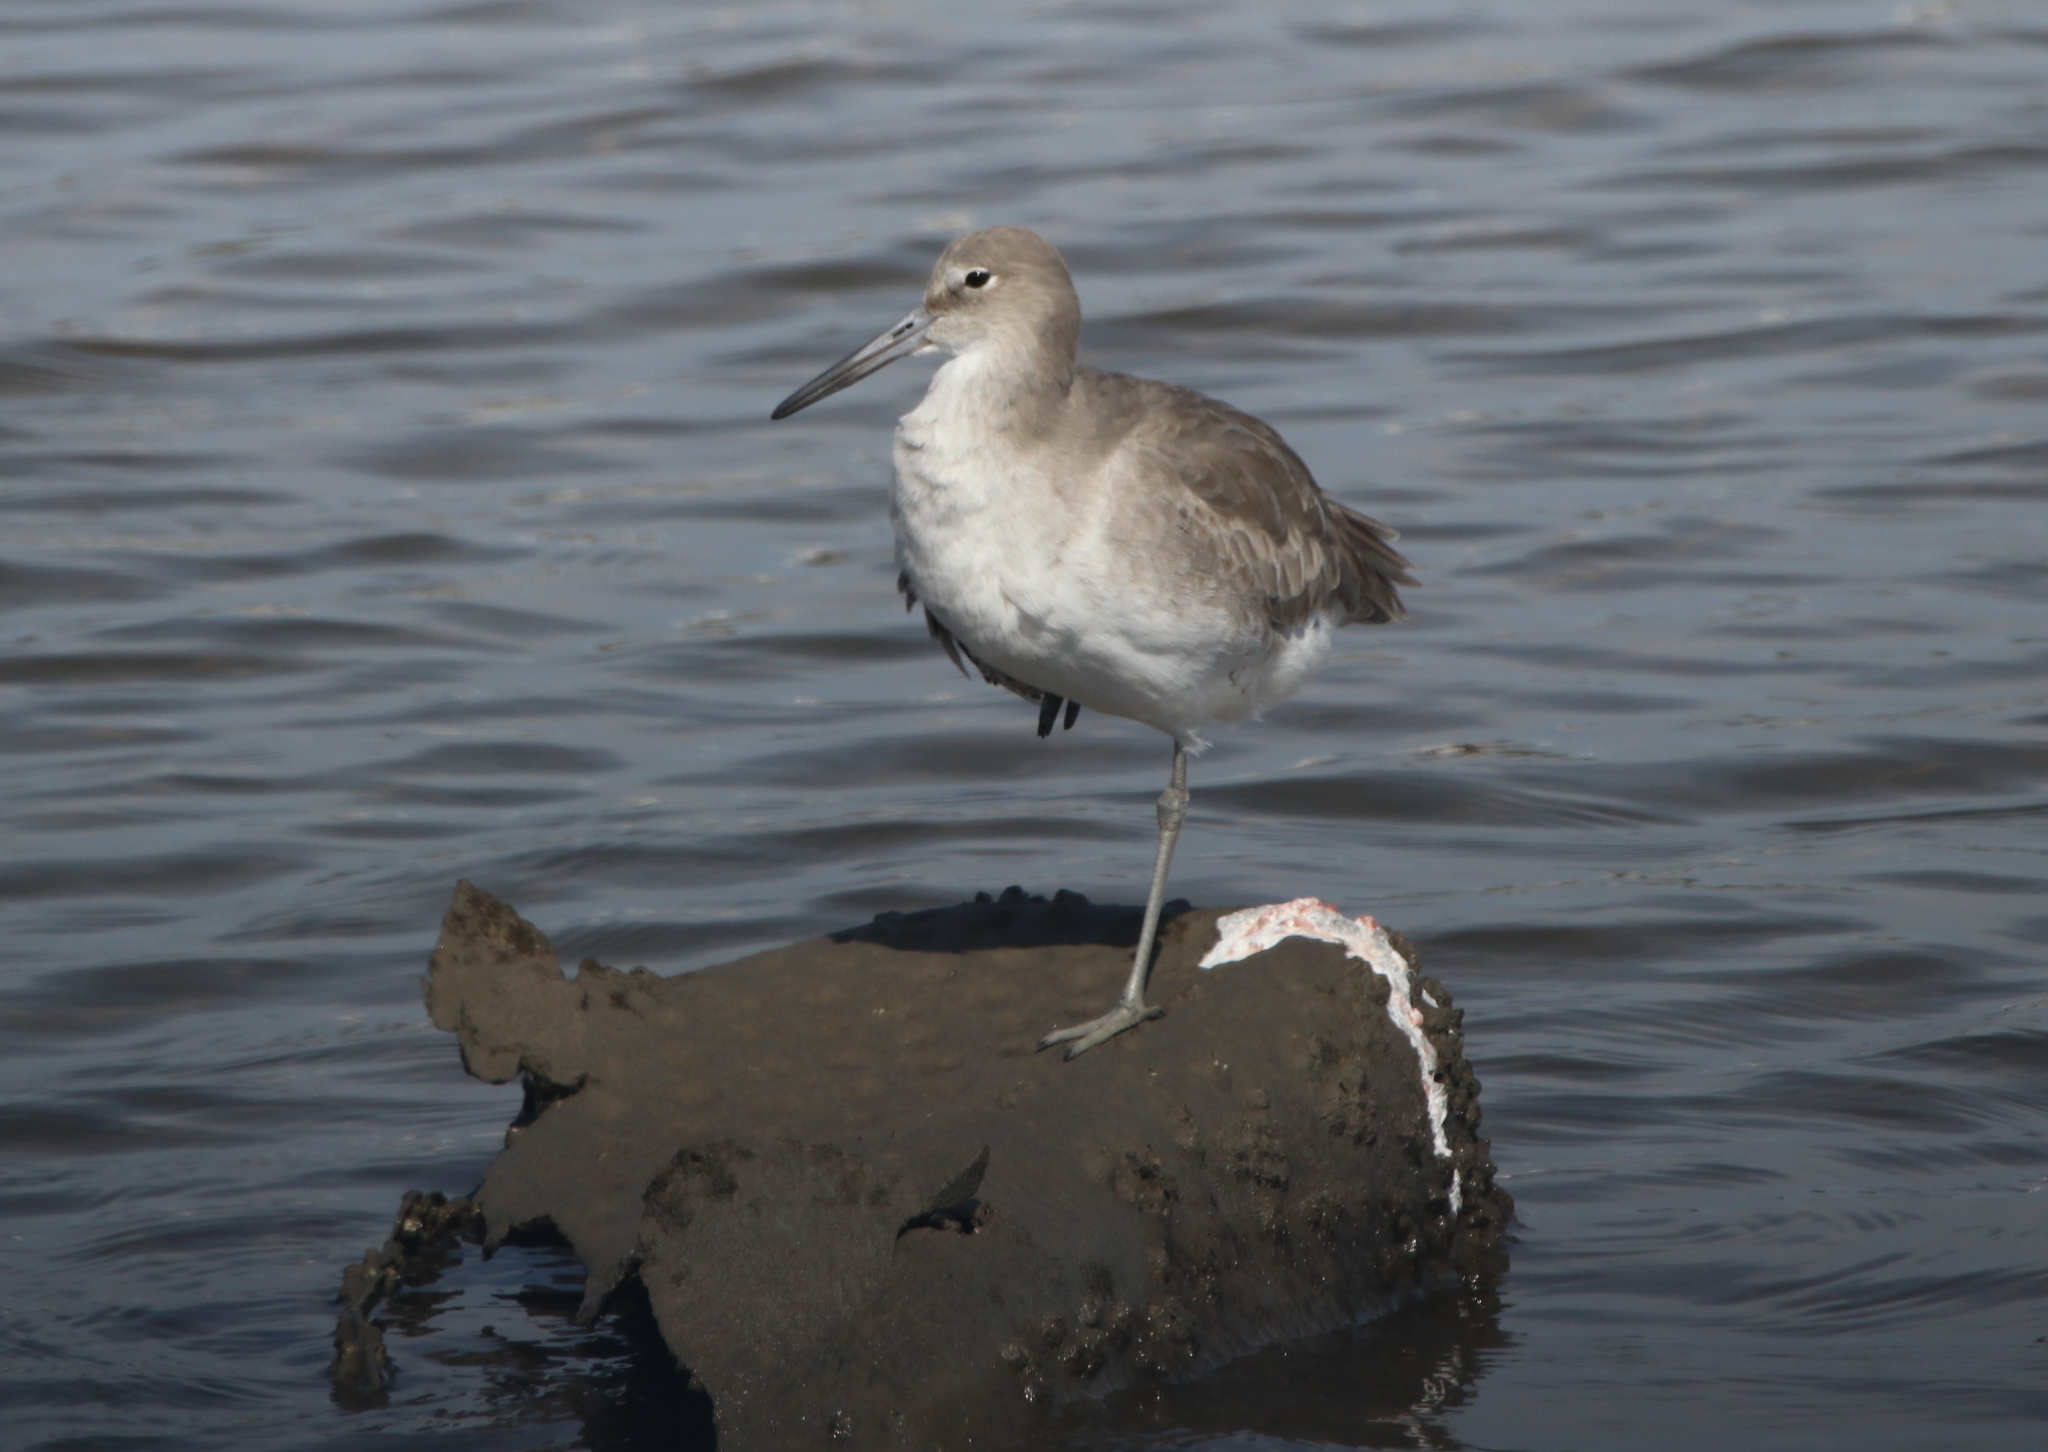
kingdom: Animalia
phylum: Chordata
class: Aves
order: Charadriiformes
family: Scolopacidae
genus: Tringa
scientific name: Tringa semipalmata
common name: Willet
